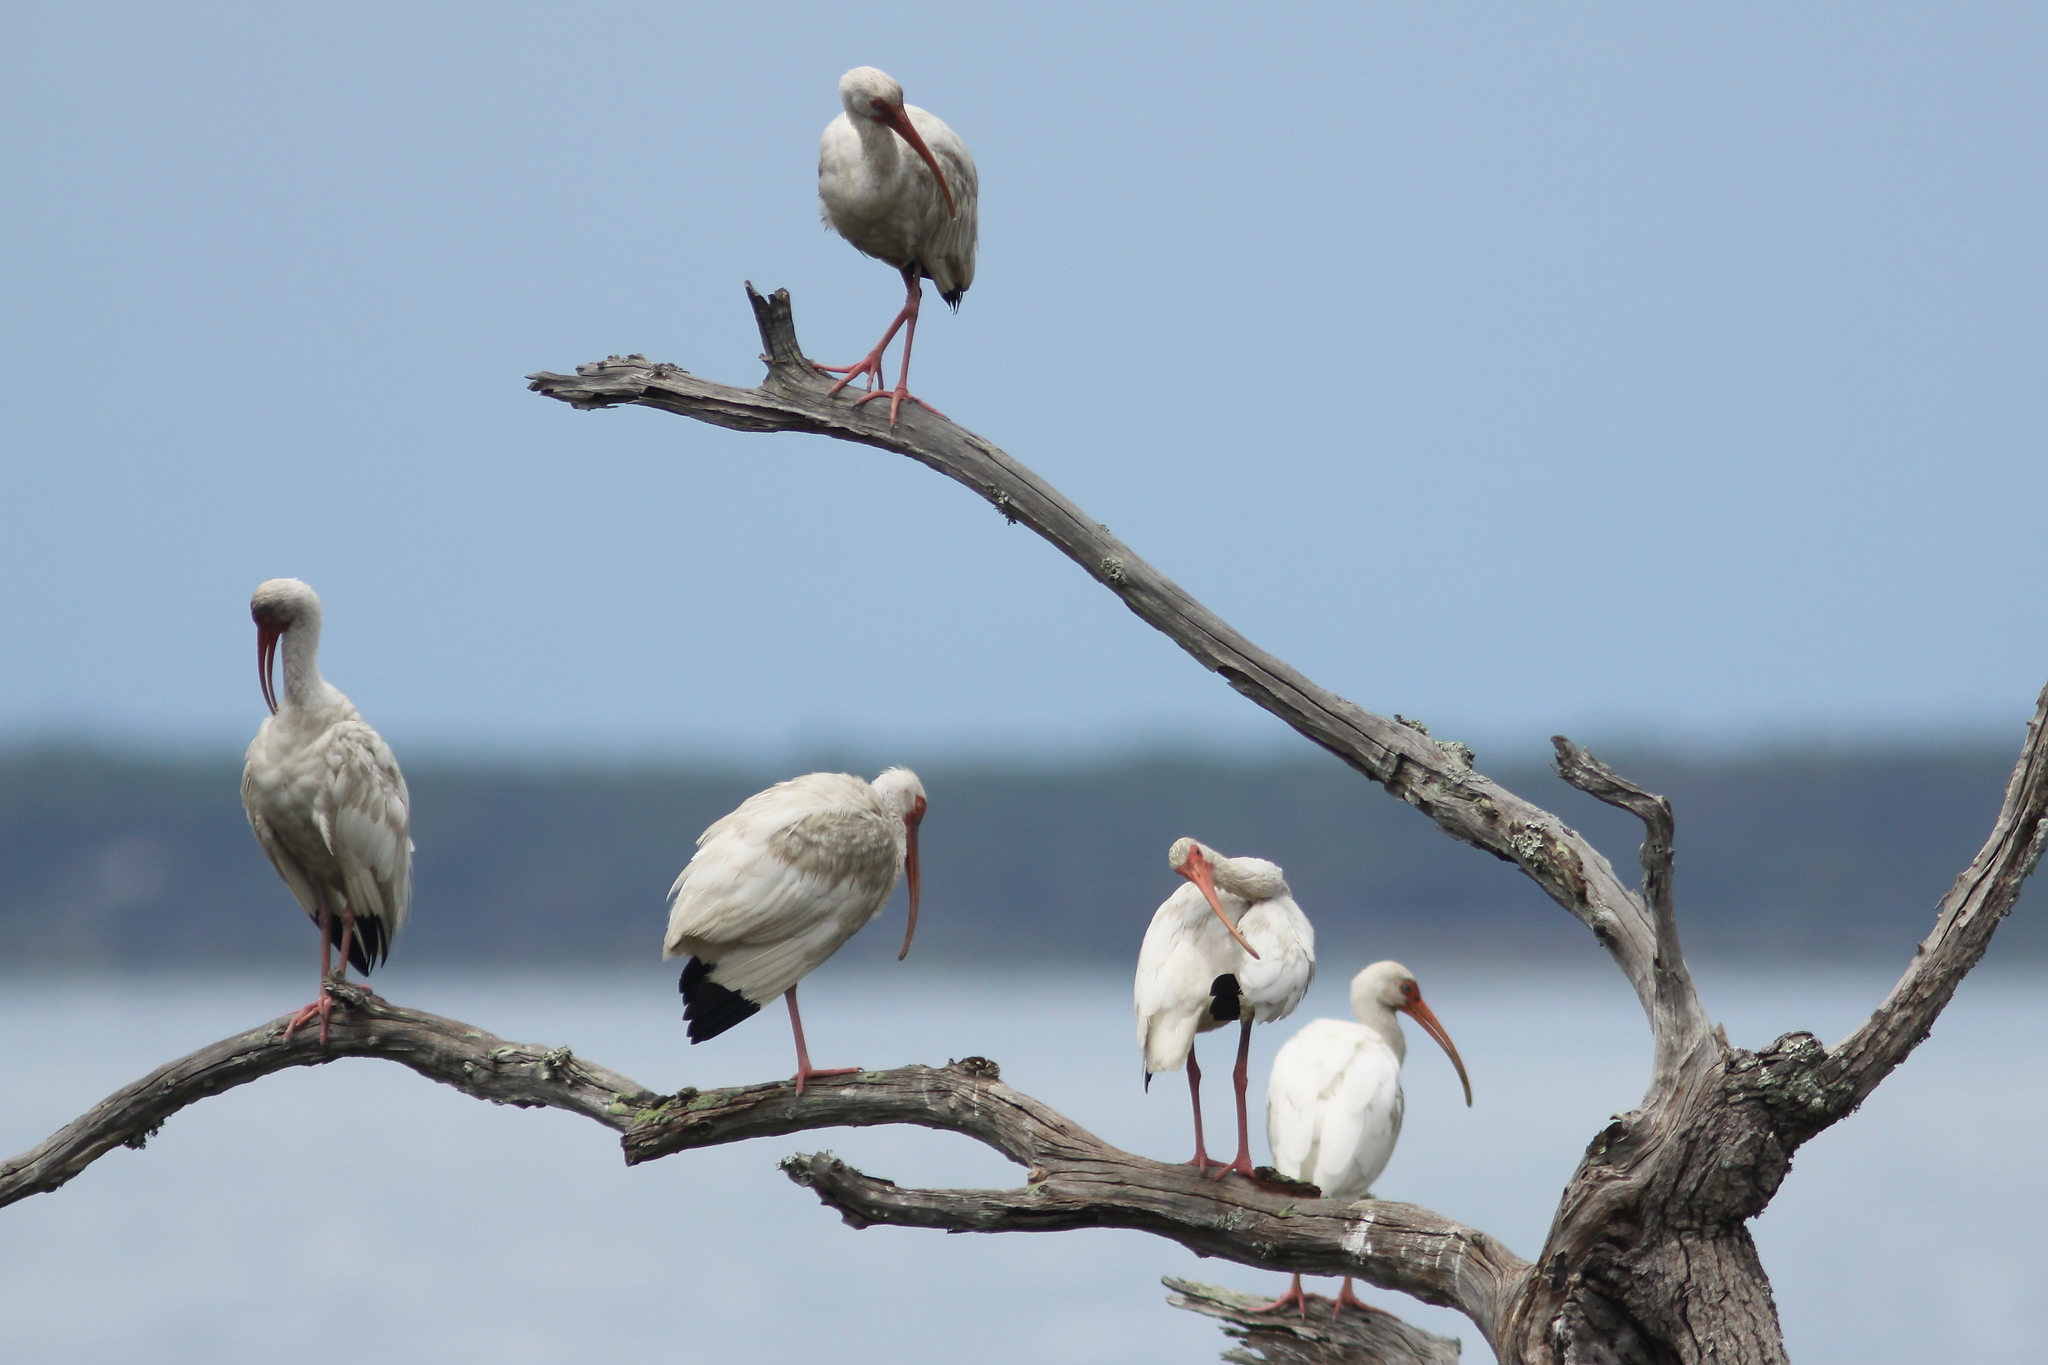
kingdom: Animalia
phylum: Chordata
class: Aves
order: Pelecaniformes
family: Threskiornithidae
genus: Eudocimus
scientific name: Eudocimus albus
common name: White ibis
